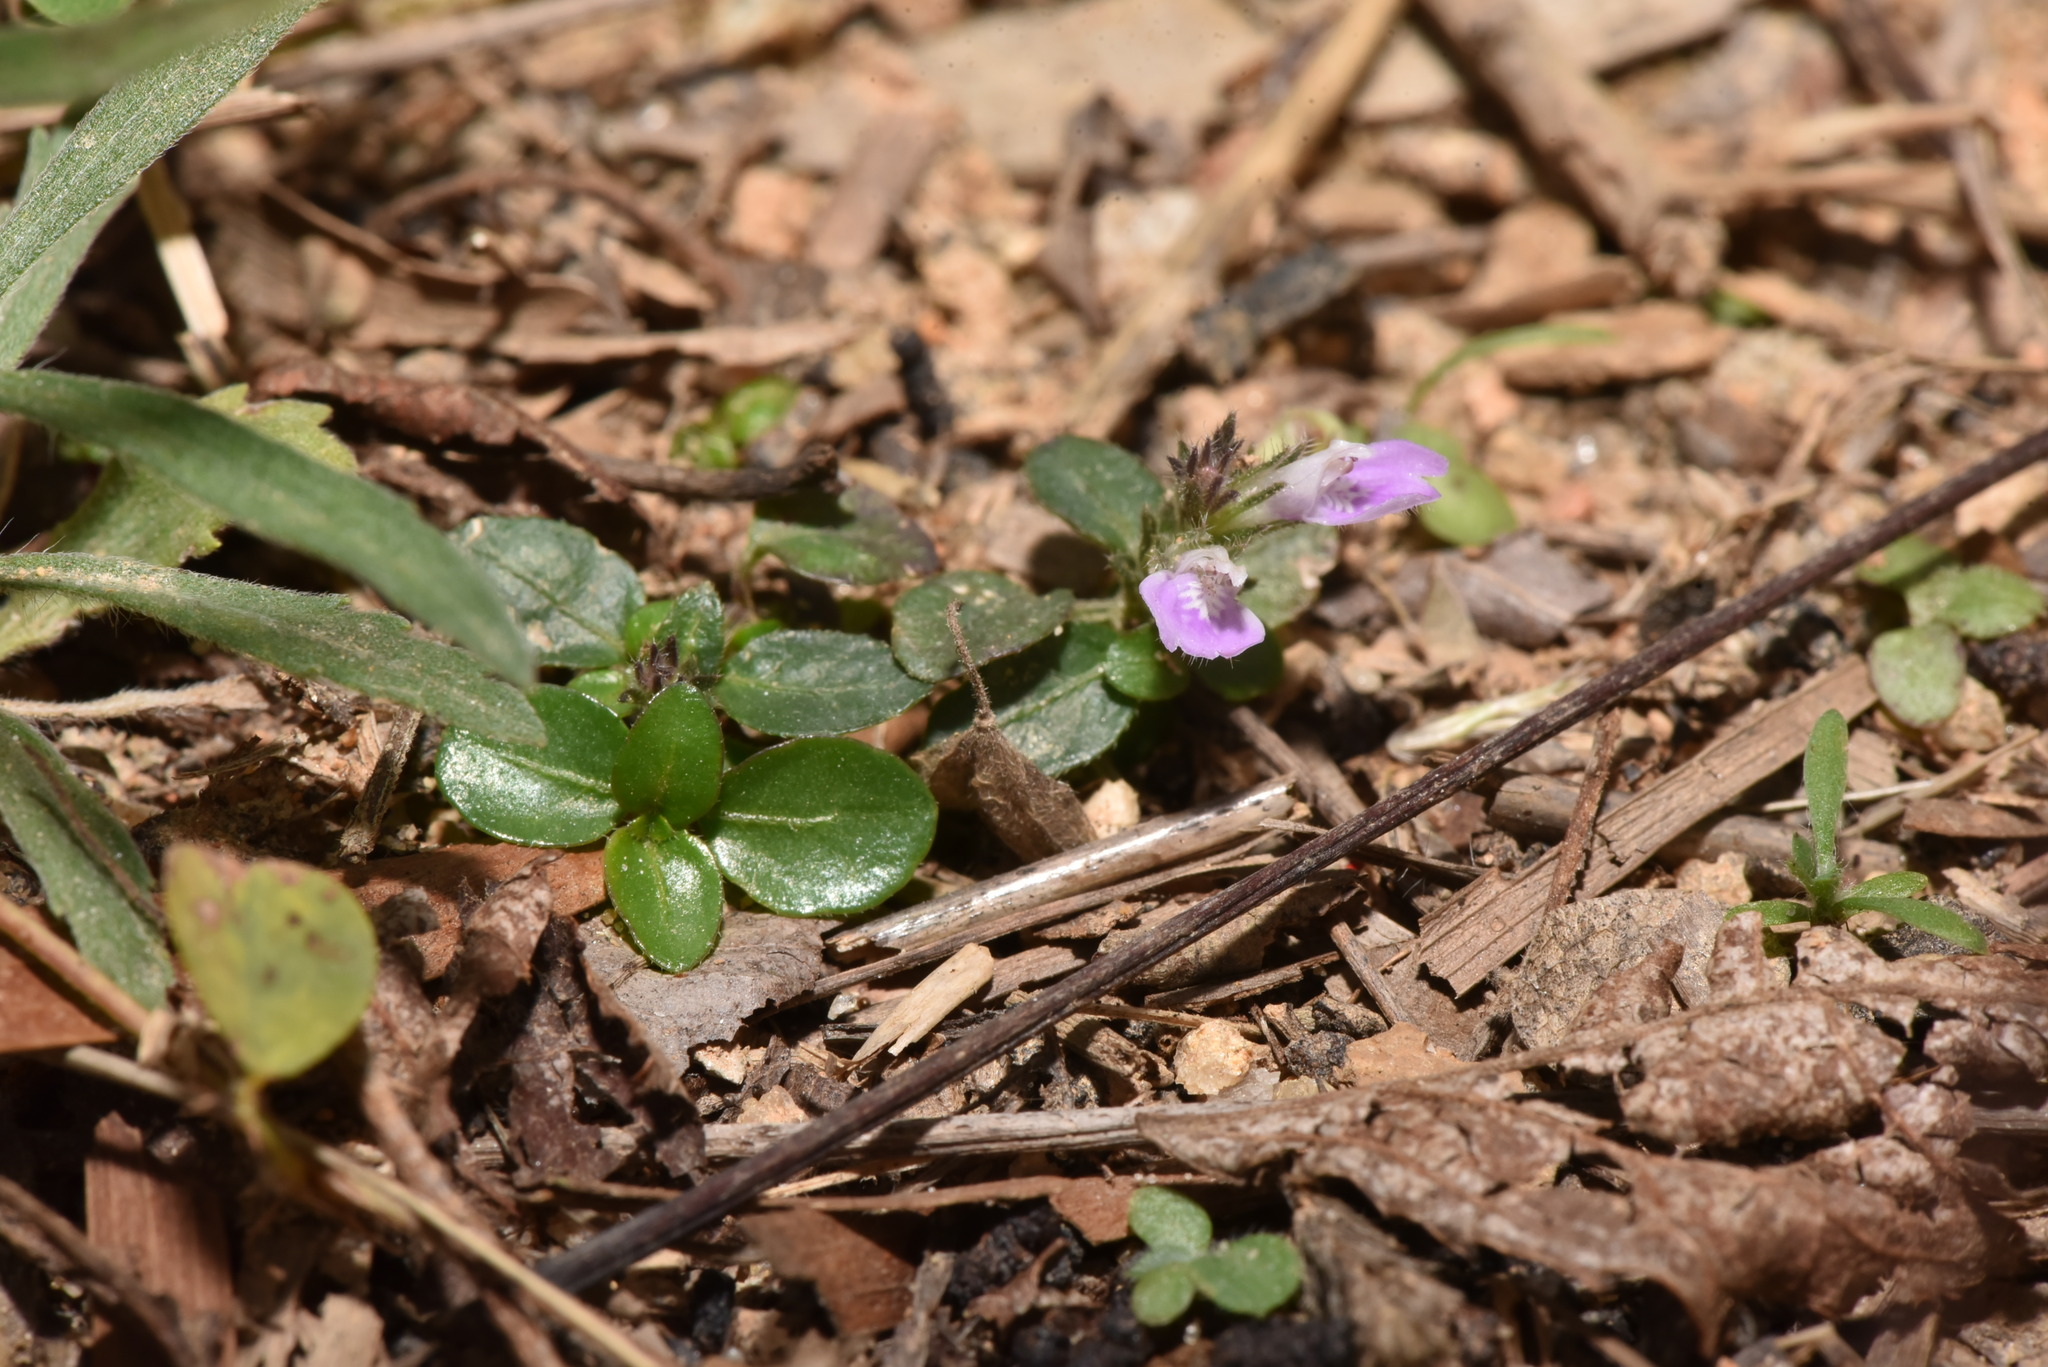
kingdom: Plantae
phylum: Tracheophyta
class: Magnoliopsida
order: Lamiales
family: Acanthaceae
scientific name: Acanthaceae
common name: Acanthaceae
